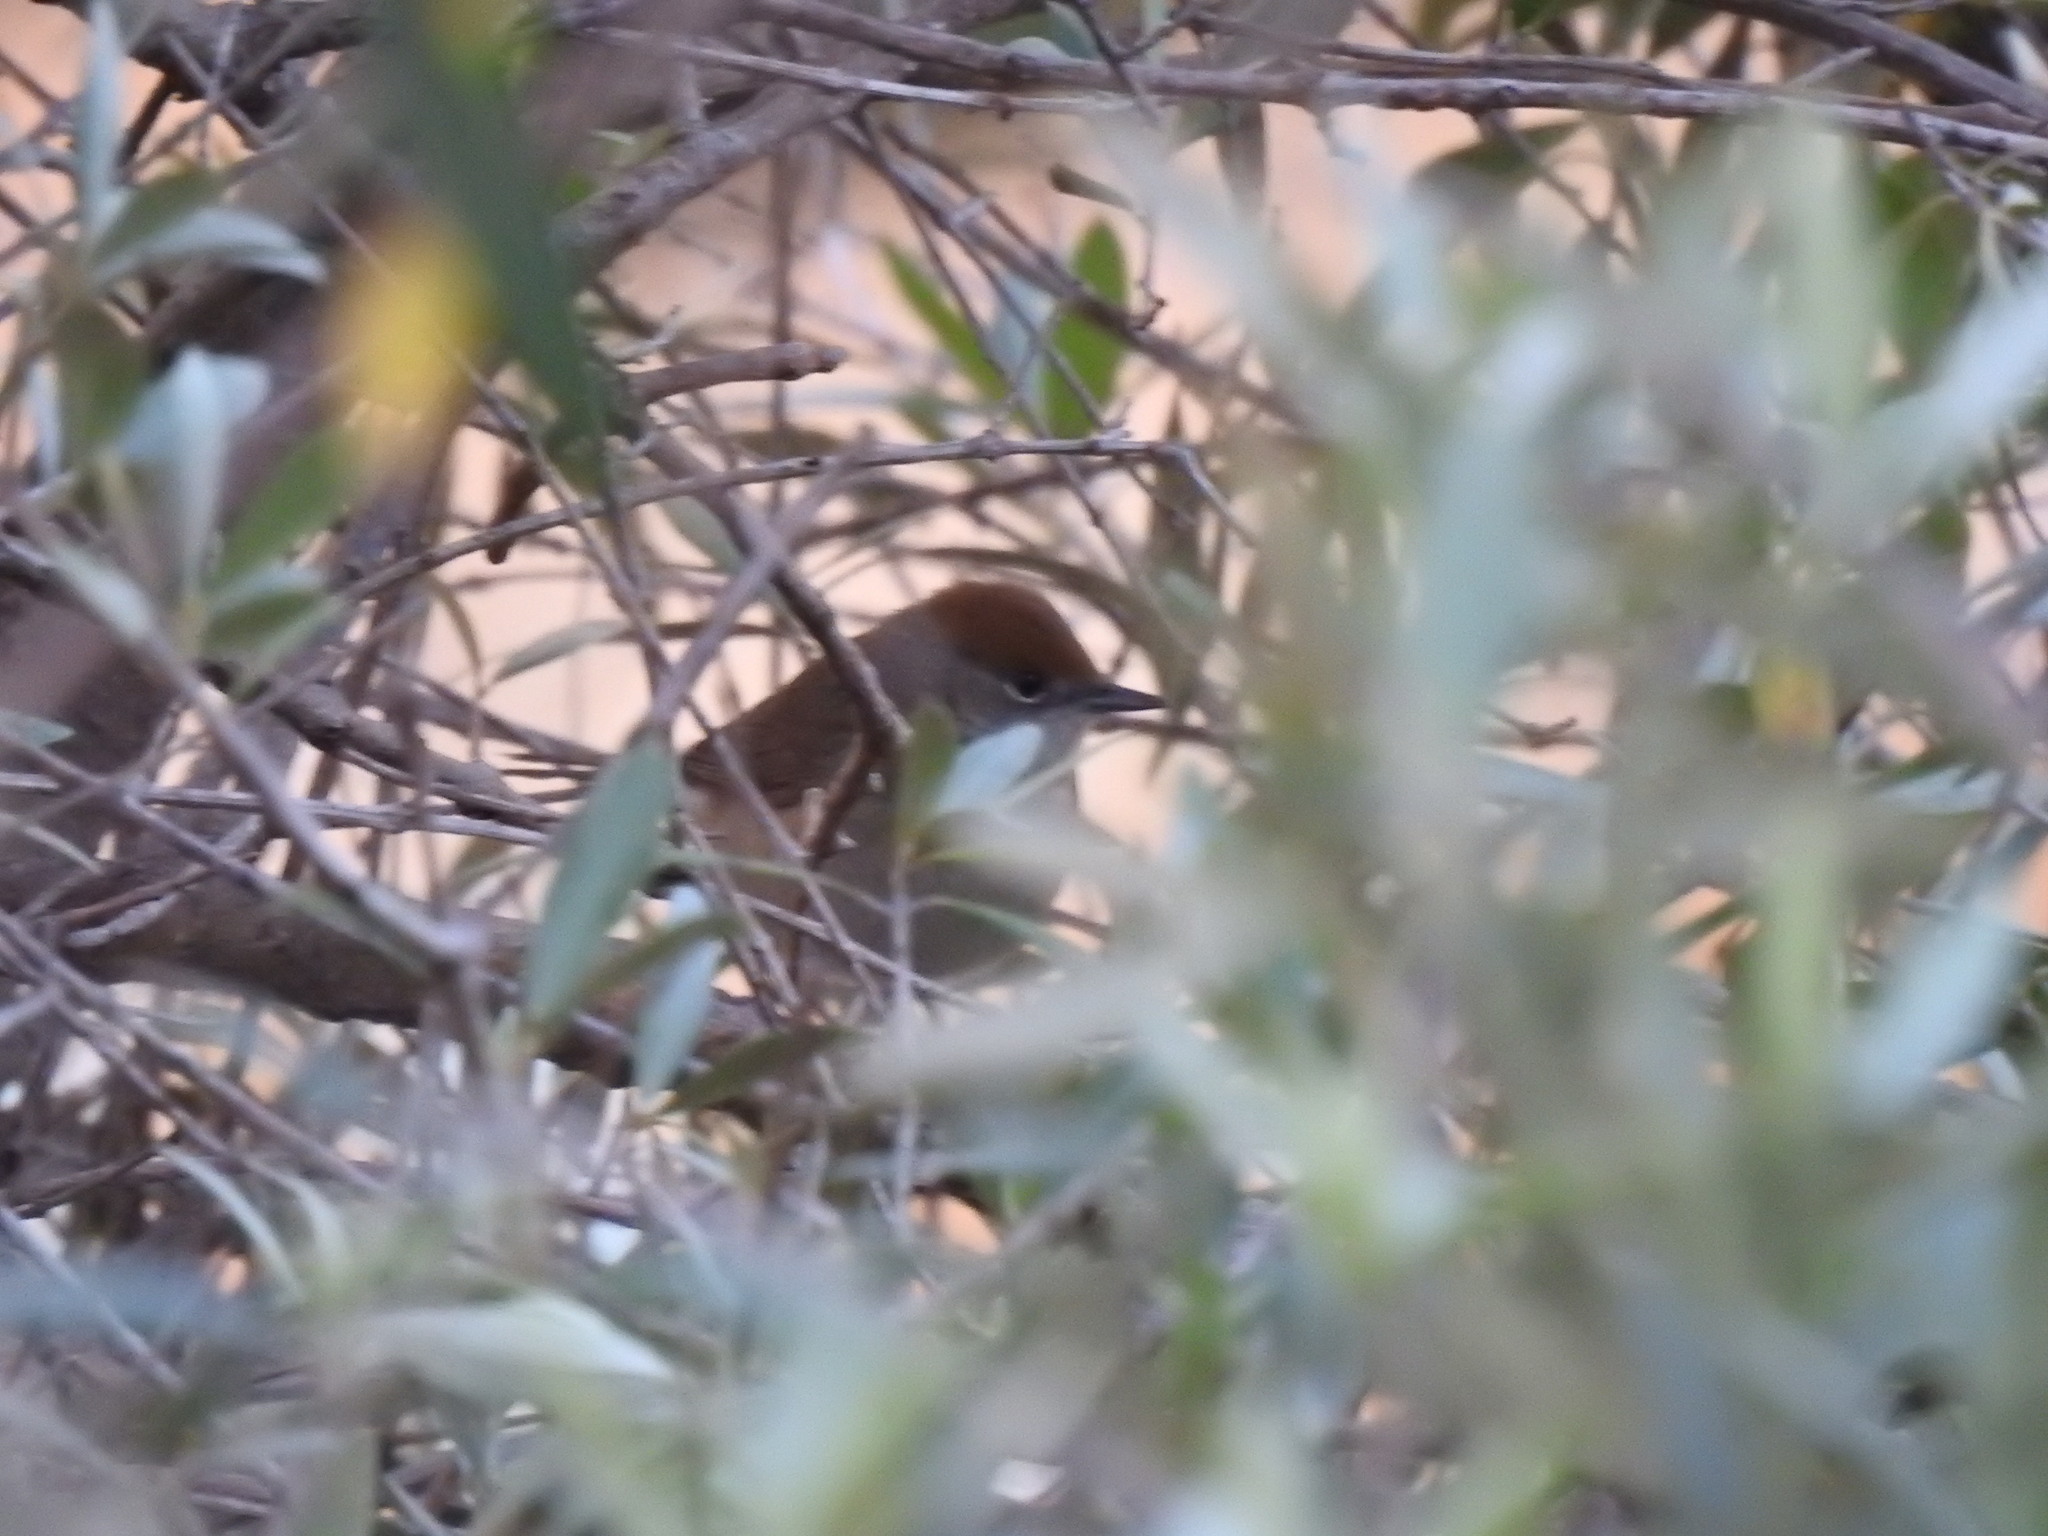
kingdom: Animalia
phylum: Chordata
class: Aves
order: Passeriformes
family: Sylviidae
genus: Sylvia
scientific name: Sylvia atricapilla
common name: Eurasian blackcap
